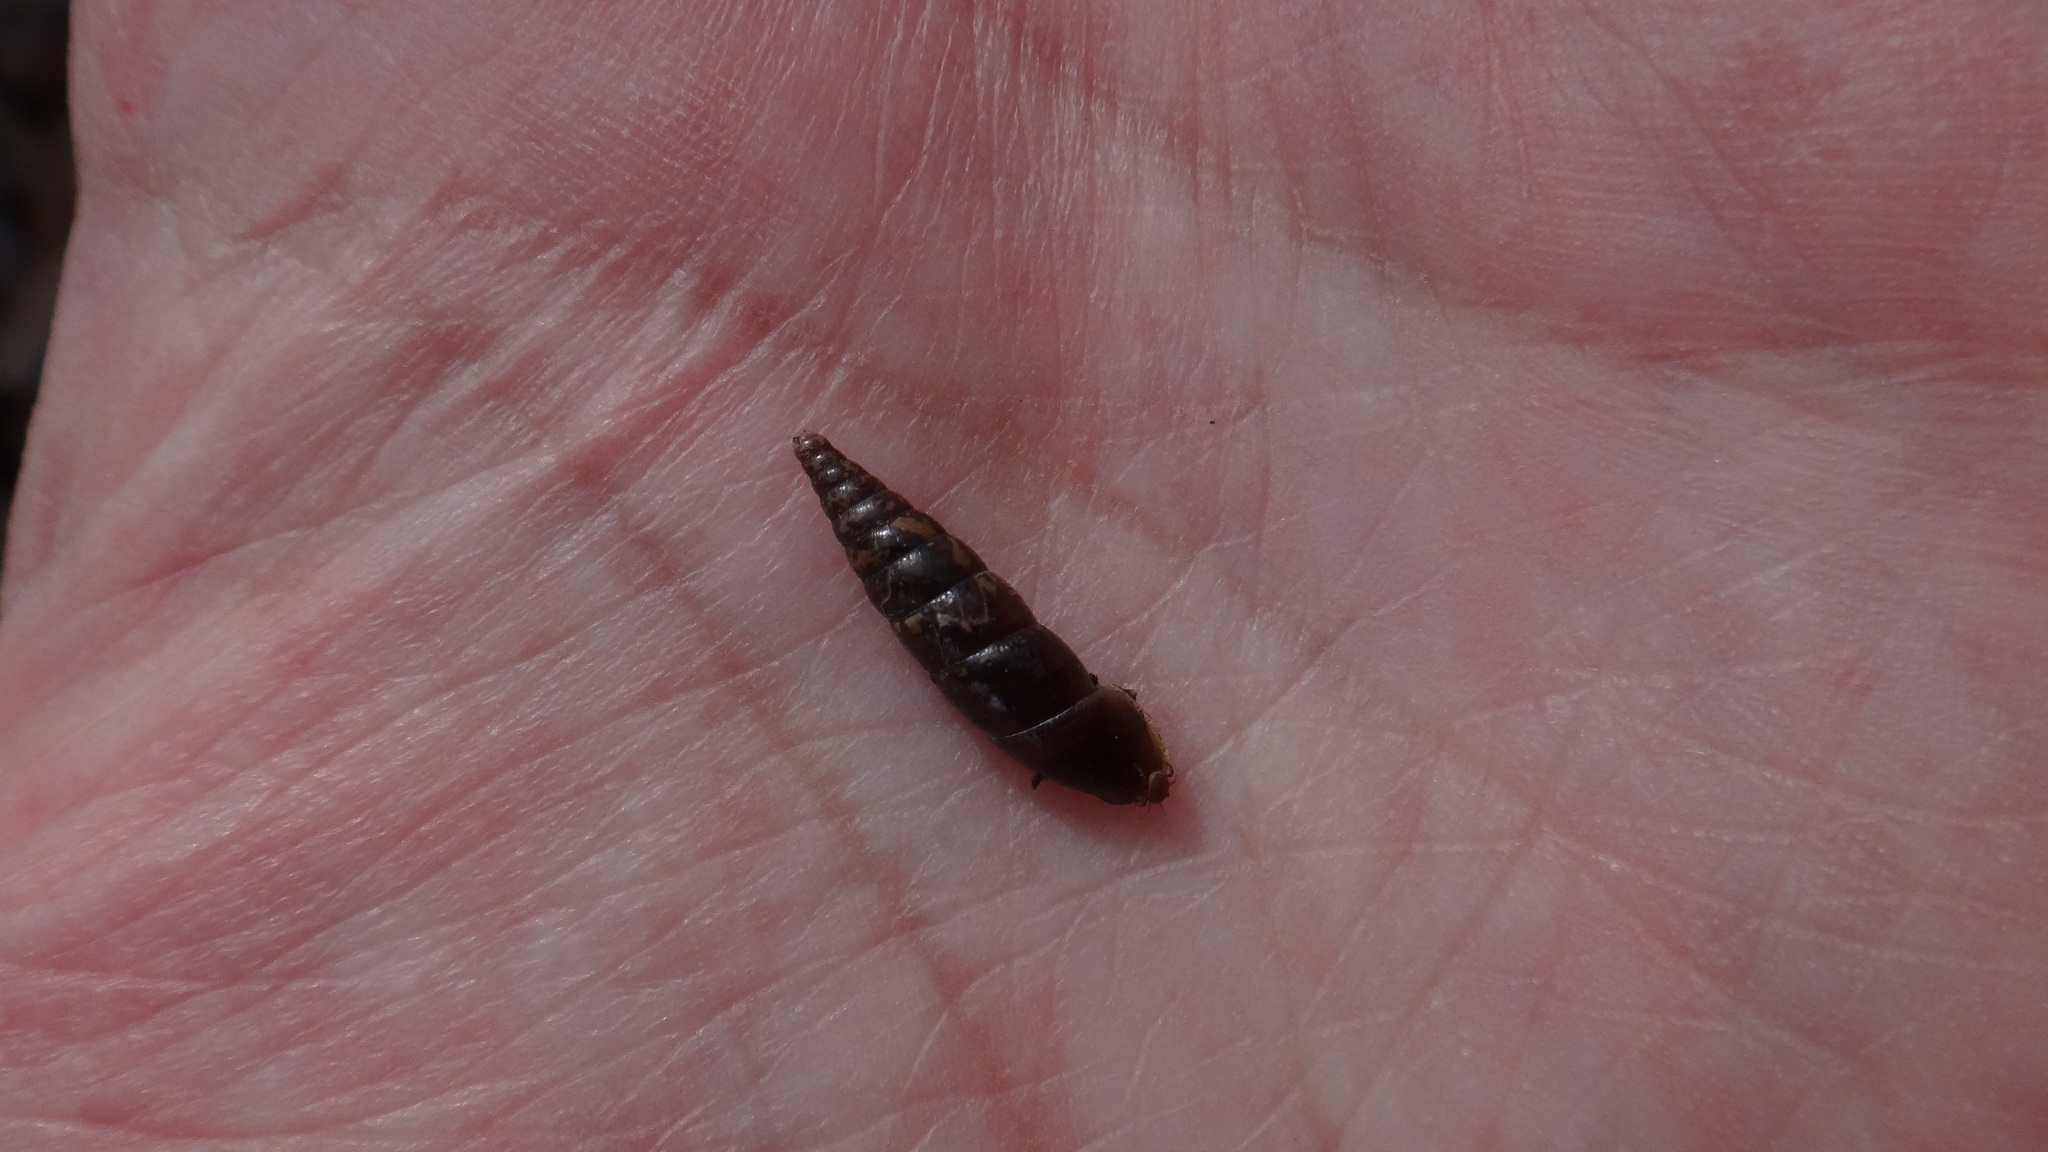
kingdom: Animalia
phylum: Mollusca
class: Gastropoda
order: Stylommatophora
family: Clausiliidae
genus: Cochlodina
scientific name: Cochlodina laminata
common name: Plaited door snail
